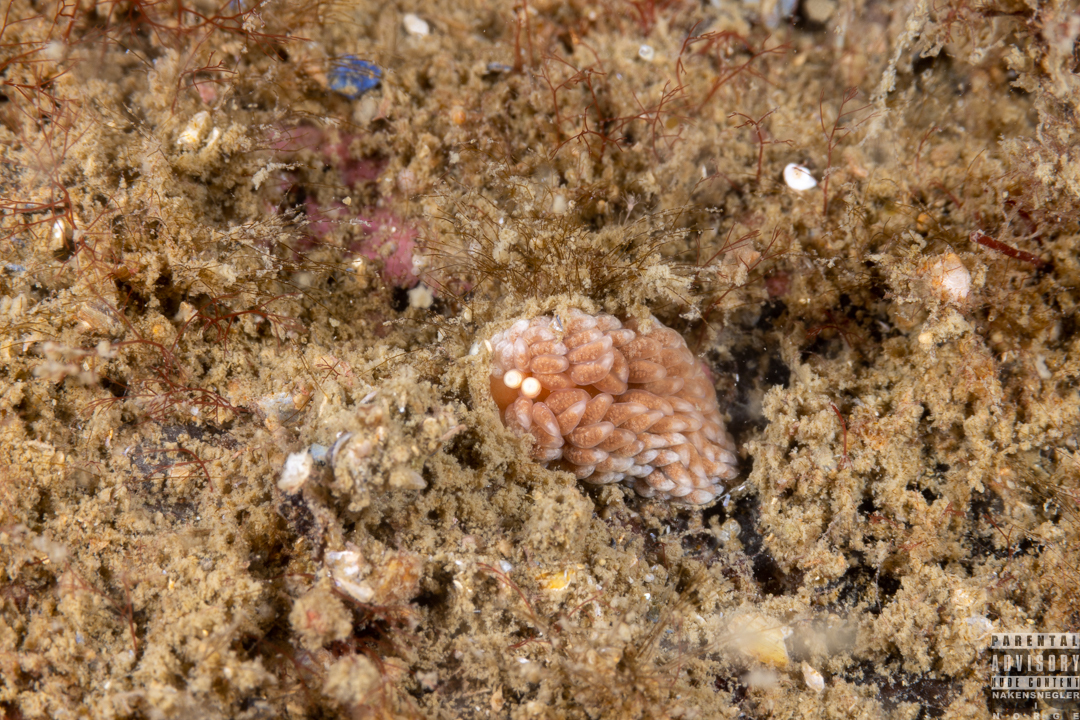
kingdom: Animalia
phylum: Mollusca
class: Gastropoda
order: Nudibranchia
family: Aeolidiidae
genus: Aeolidiella
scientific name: Aeolidiella glauca
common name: Orange-brown aeolid
